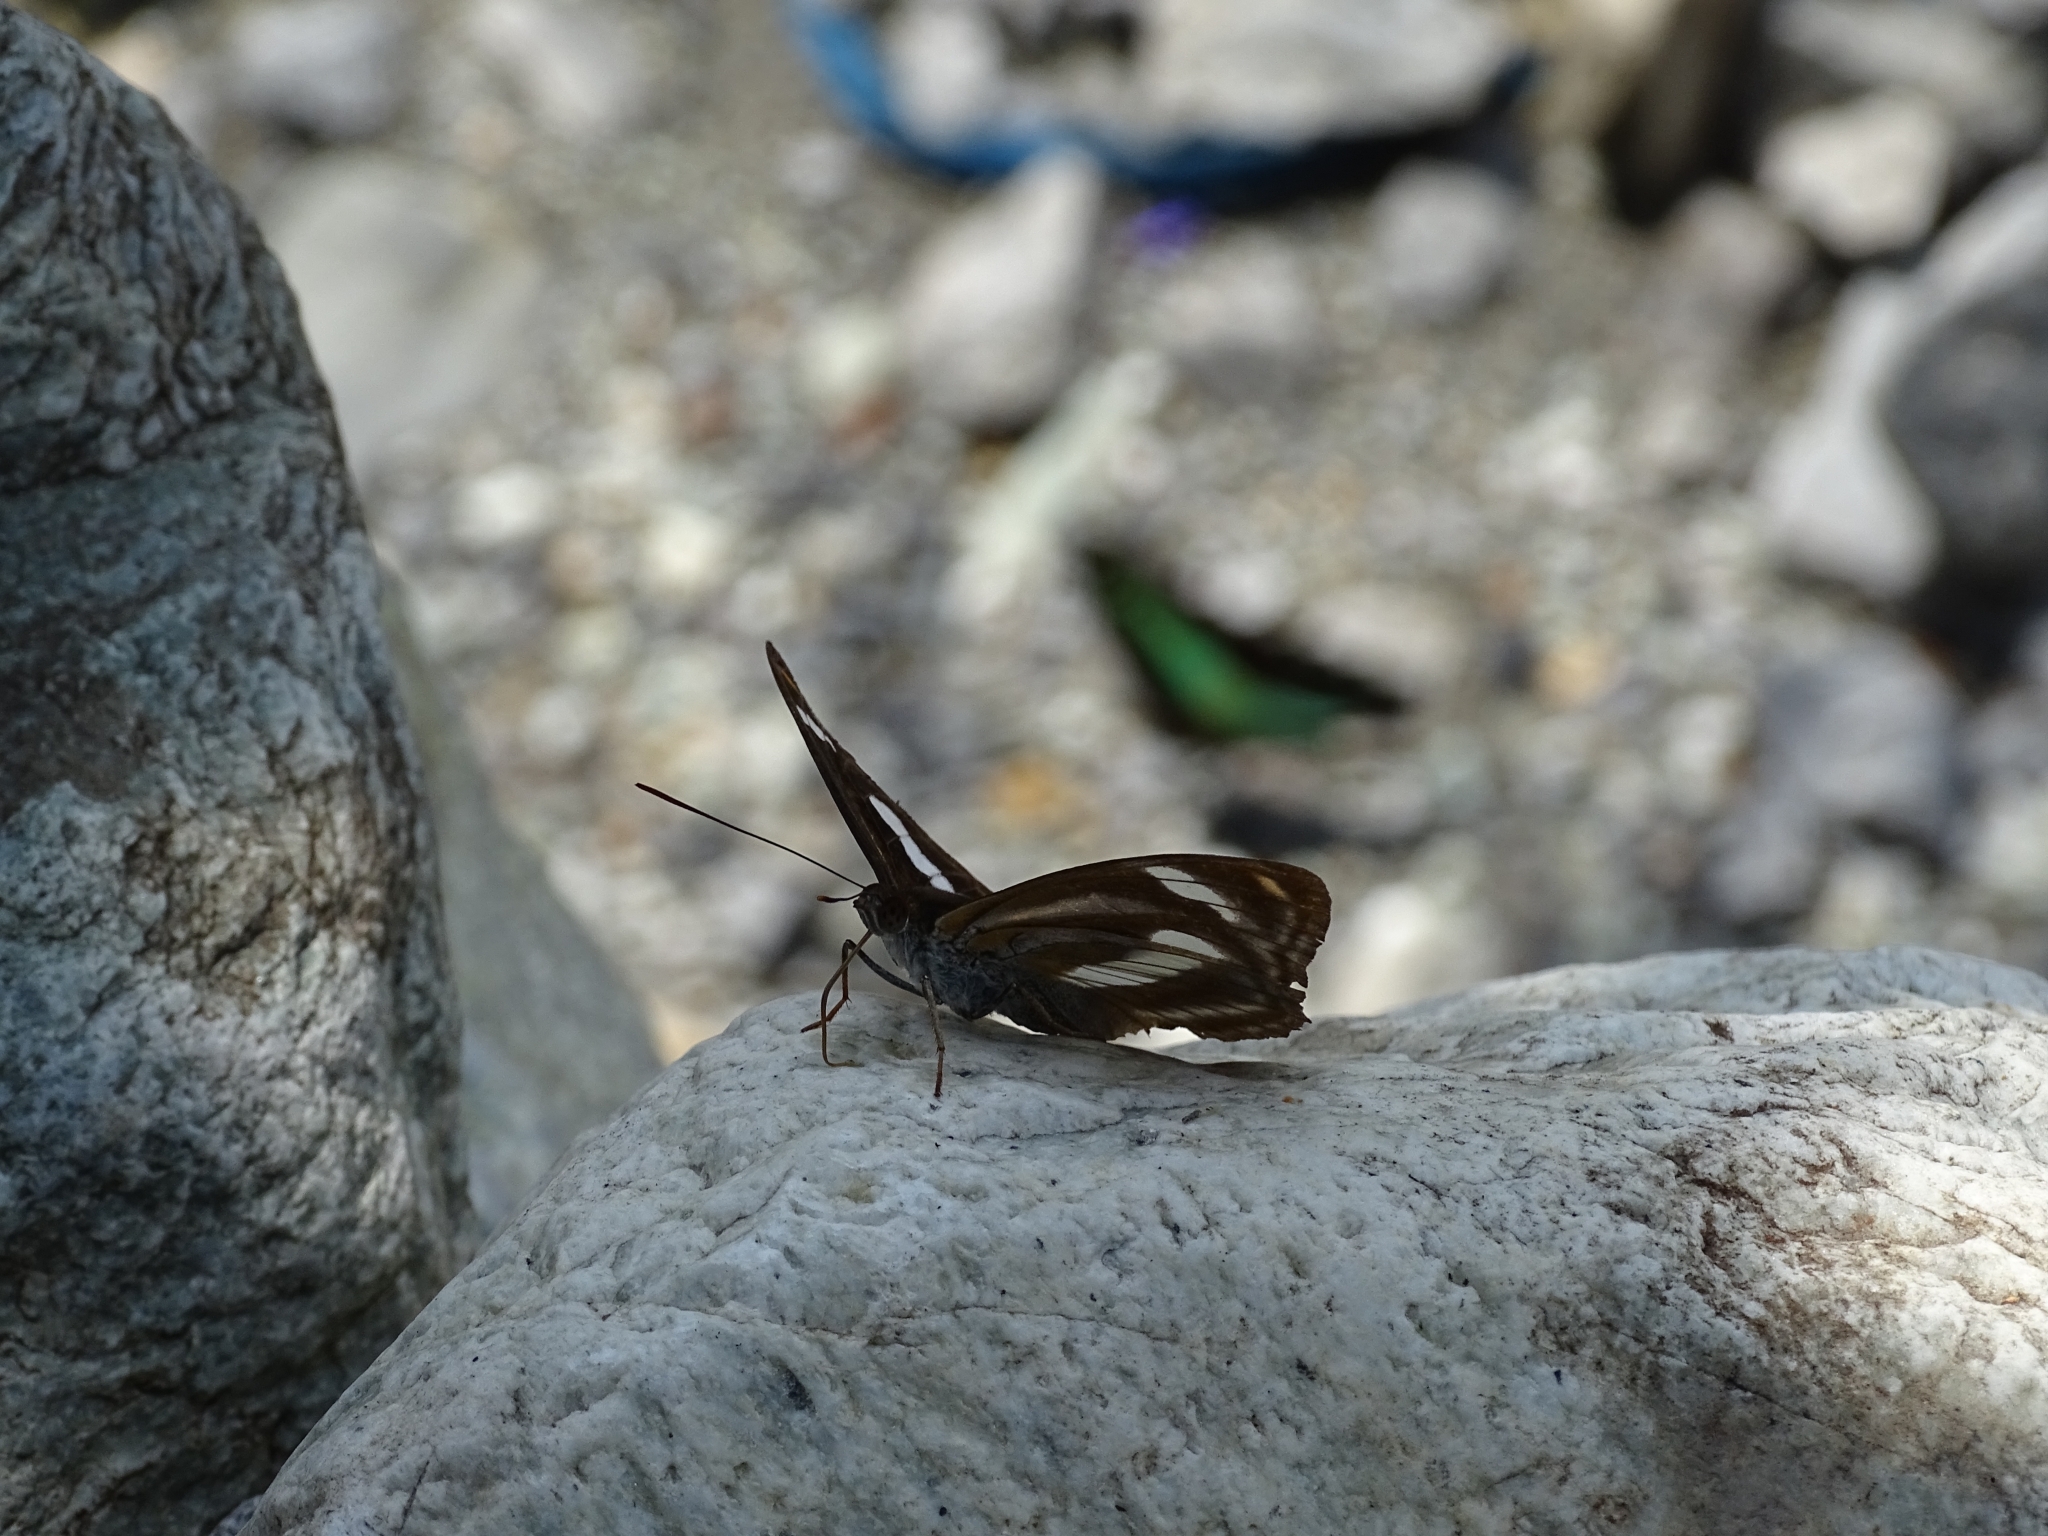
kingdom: Animalia
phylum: Arthropoda
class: Insecta
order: Lepidoptera
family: Nymphalidae
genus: Pantoporia
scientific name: Pantoporia cama
